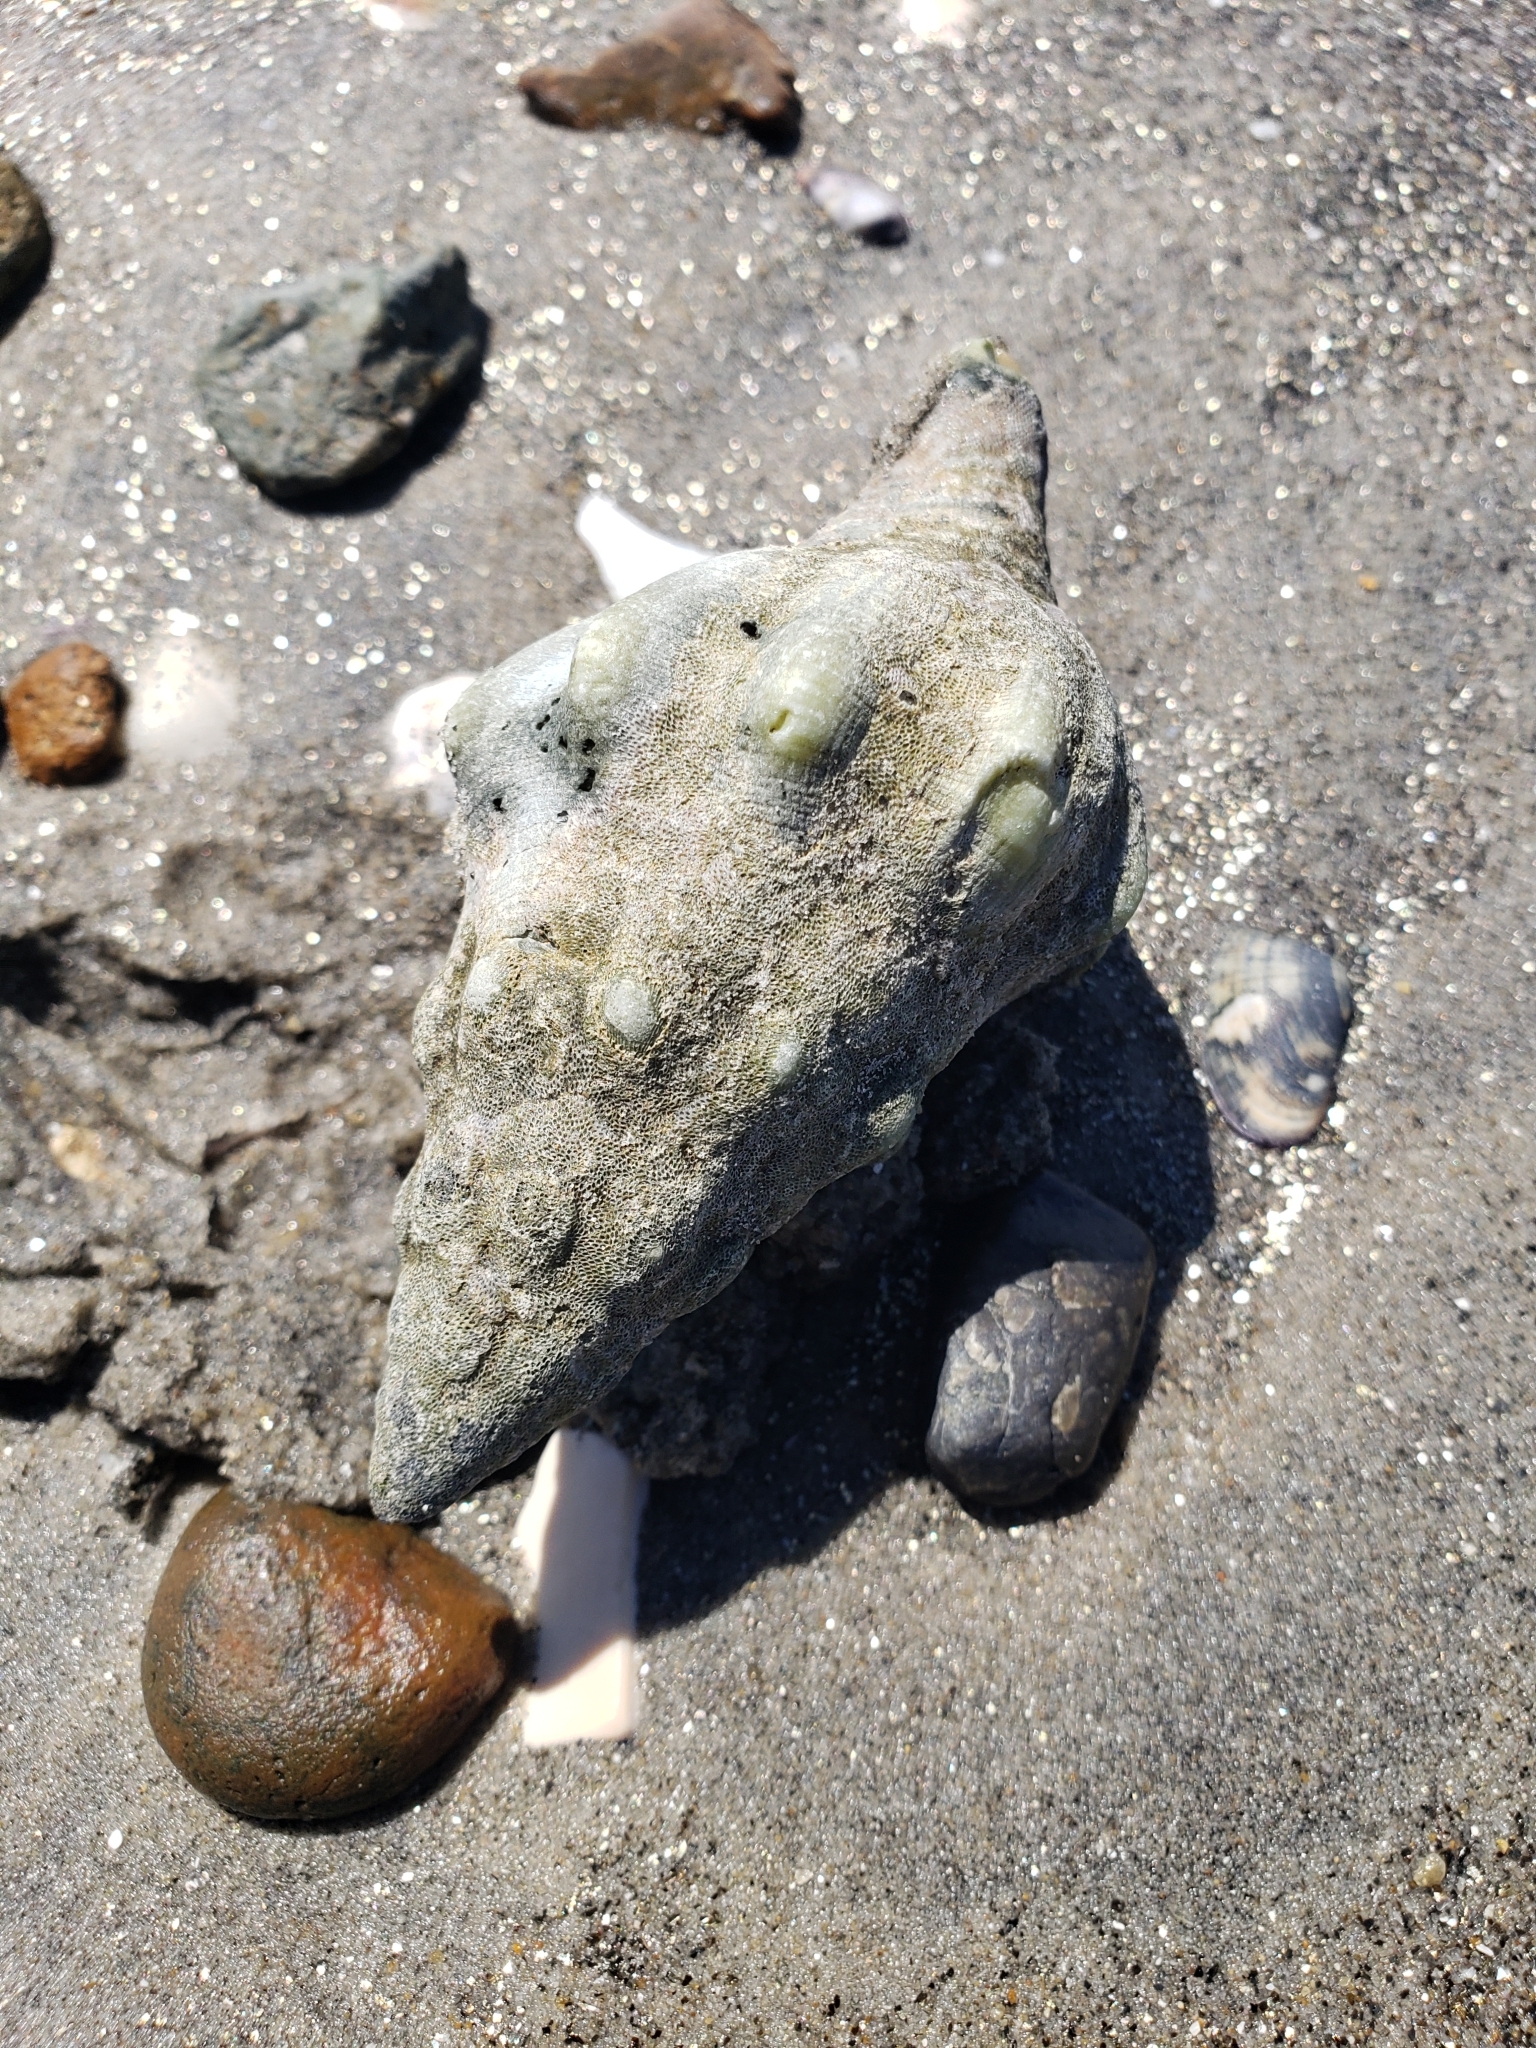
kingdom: Animalia
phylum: Mollusca
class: Gastropoda
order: Neogastropoda
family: Austrosiphonidae
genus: Kelletia
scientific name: Kelletia kelletii
